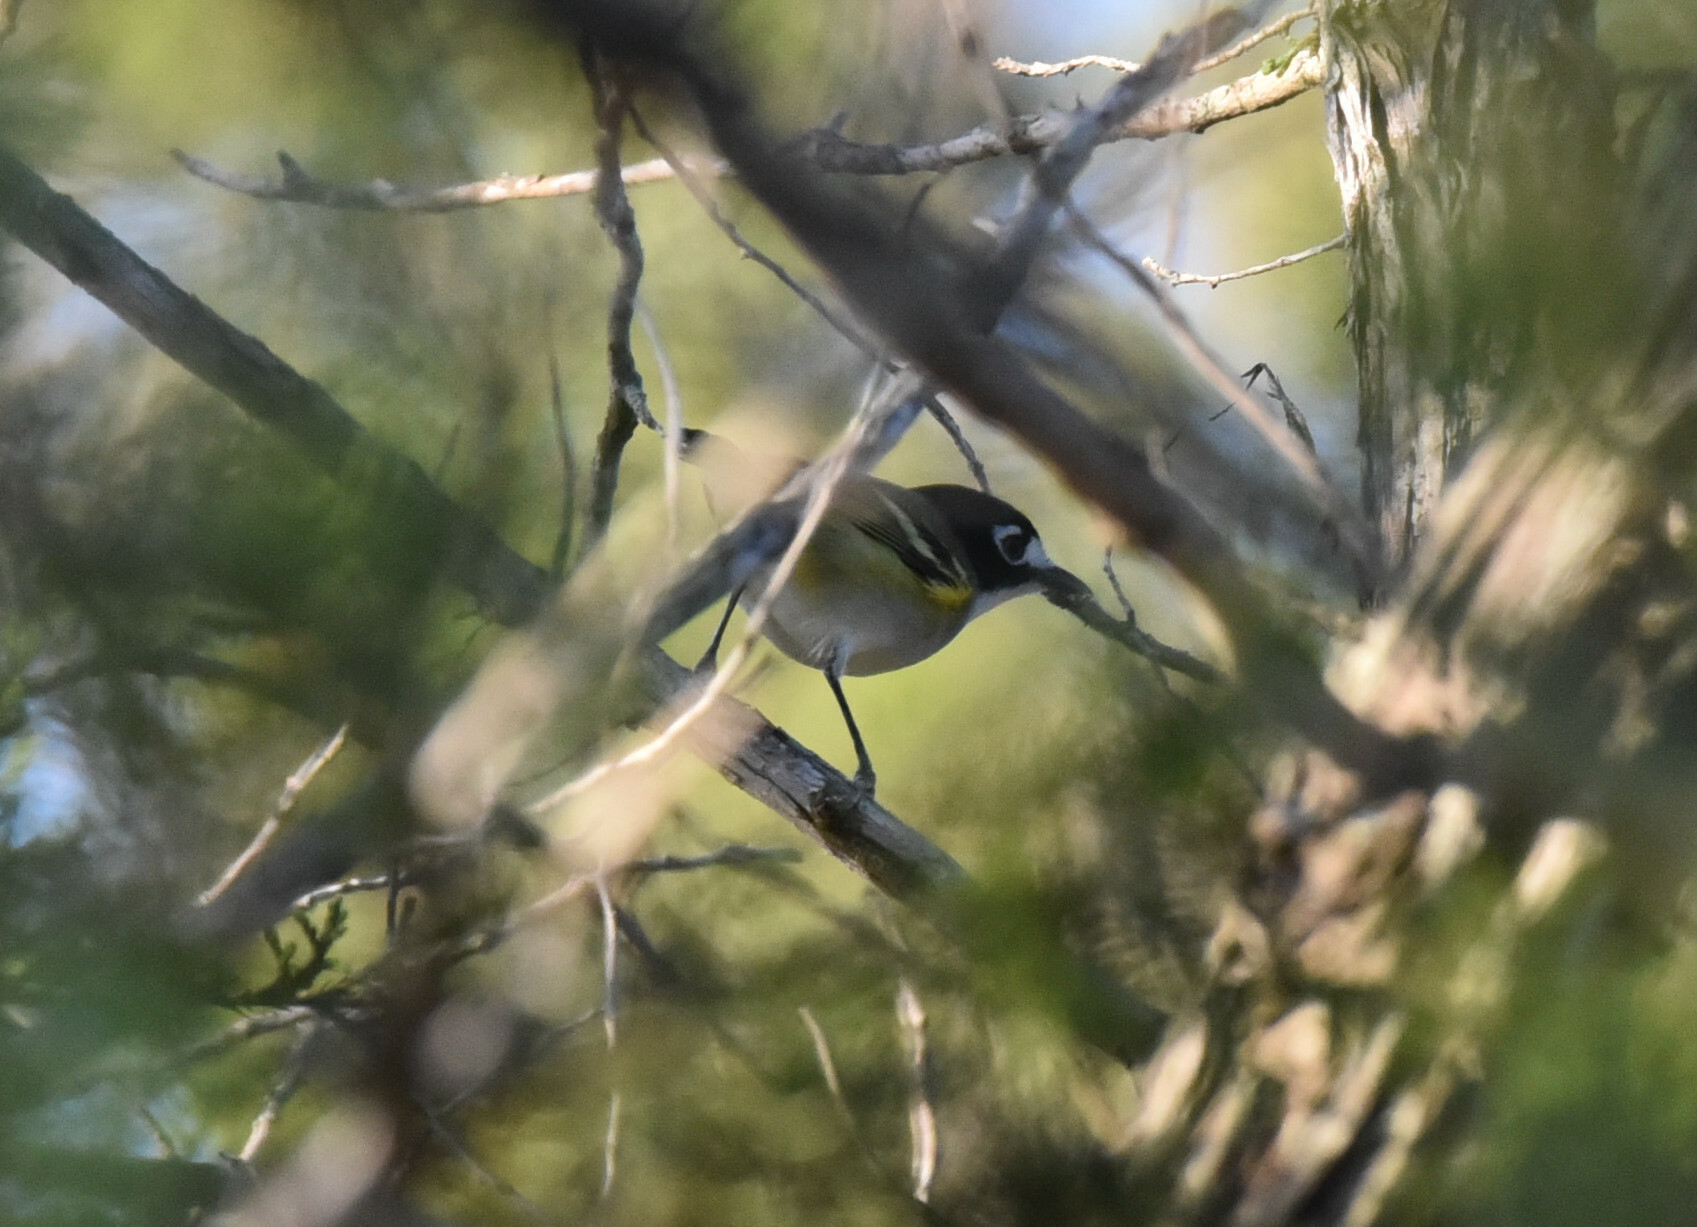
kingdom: Animalia
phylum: Chordata
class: Aves
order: Passeriformes
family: Vireonidae
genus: Vireo
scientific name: Vireo atricapilla
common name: Black-capped vireo
